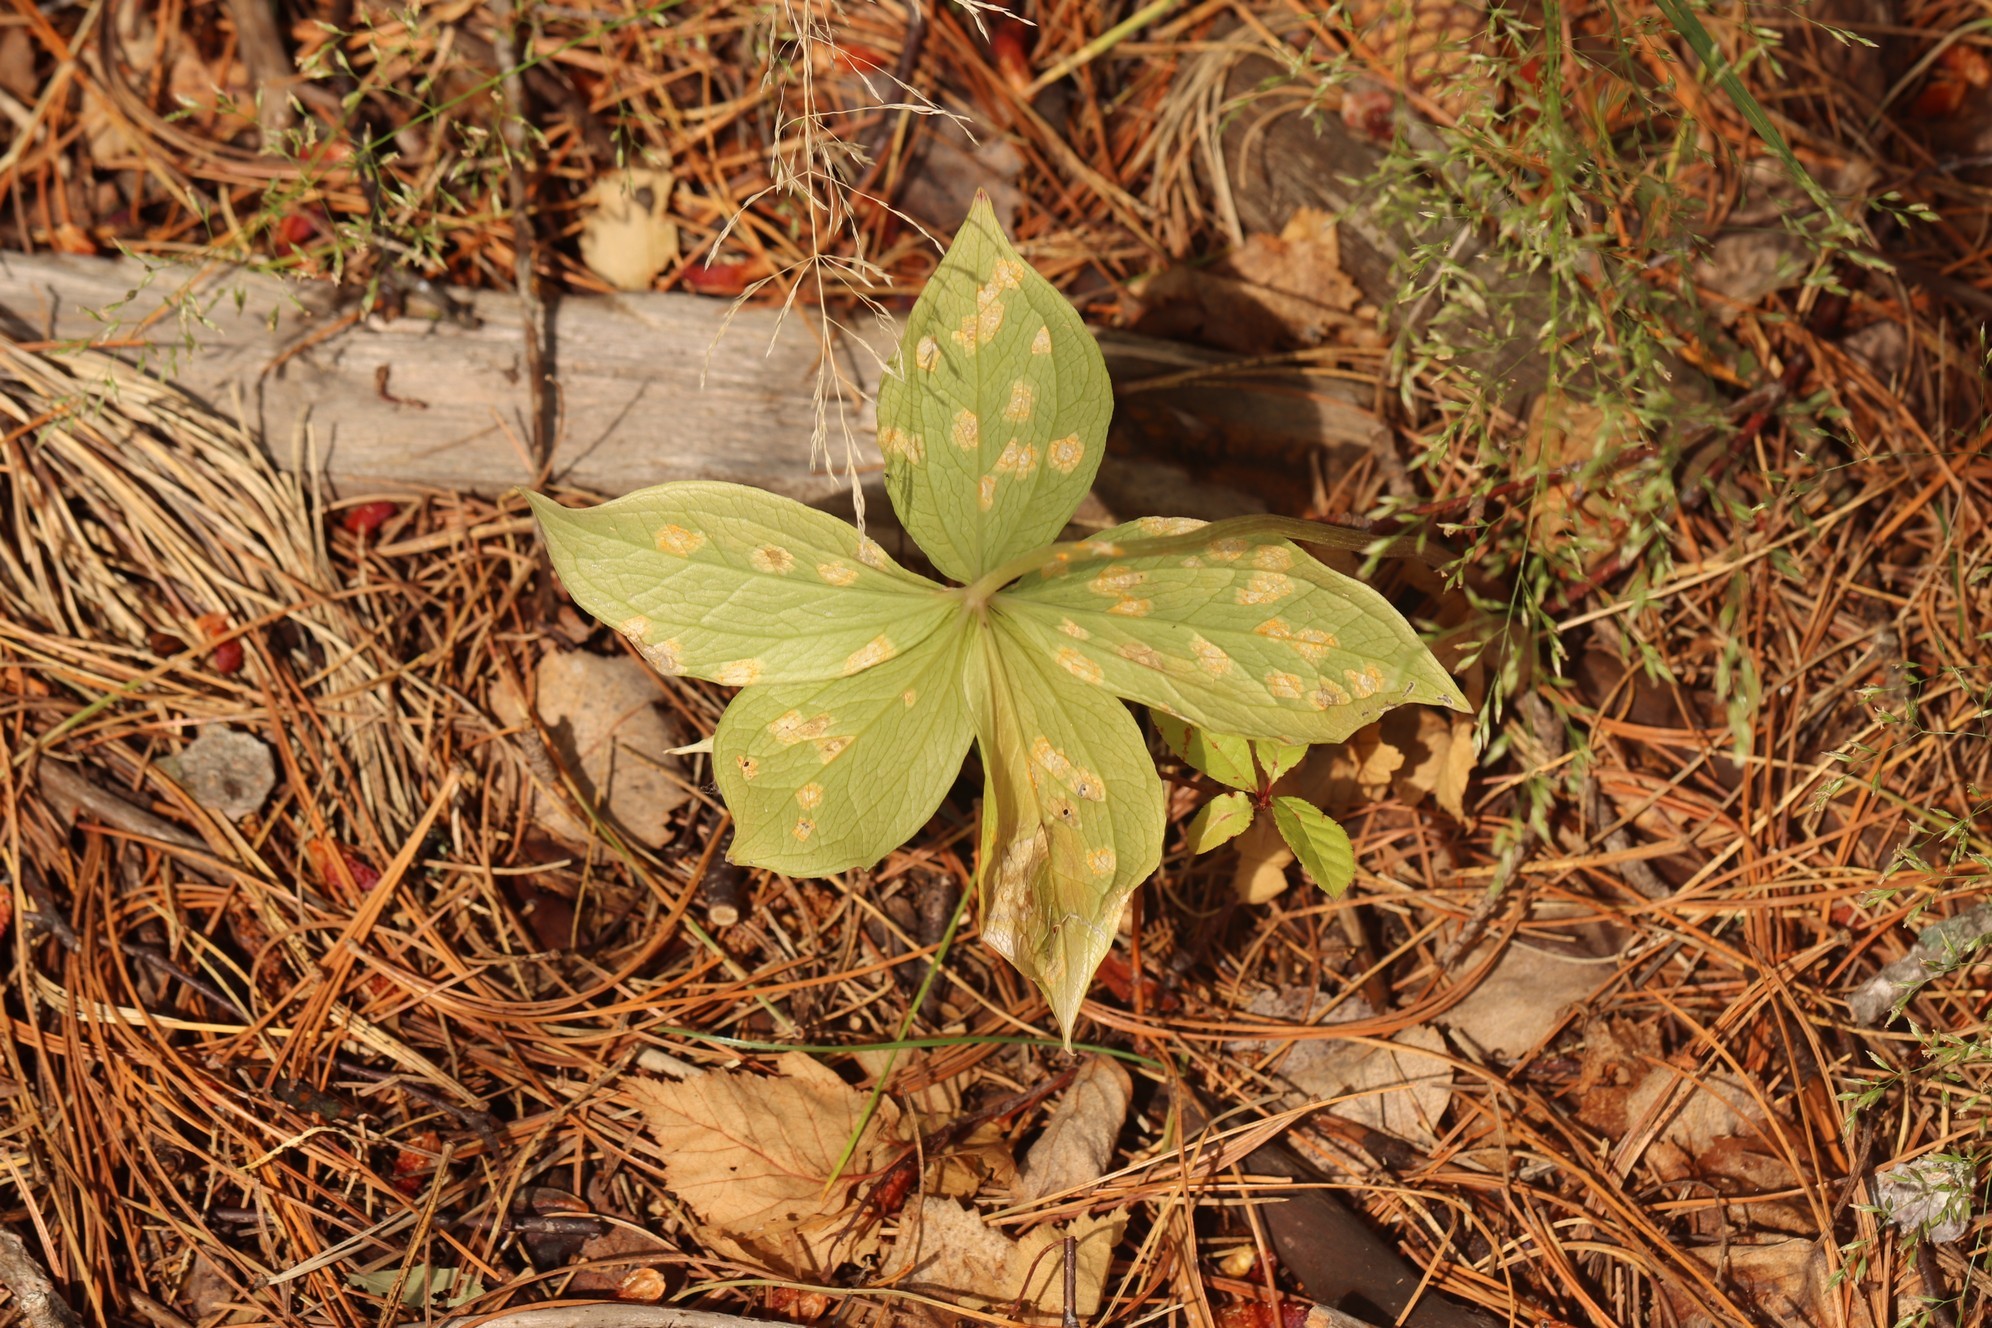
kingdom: Plantae
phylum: Tracheophyta
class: Liliopsida
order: Liliales
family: Melanthiaceae
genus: Paris
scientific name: Paris quadrifolia
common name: Herb-paris
